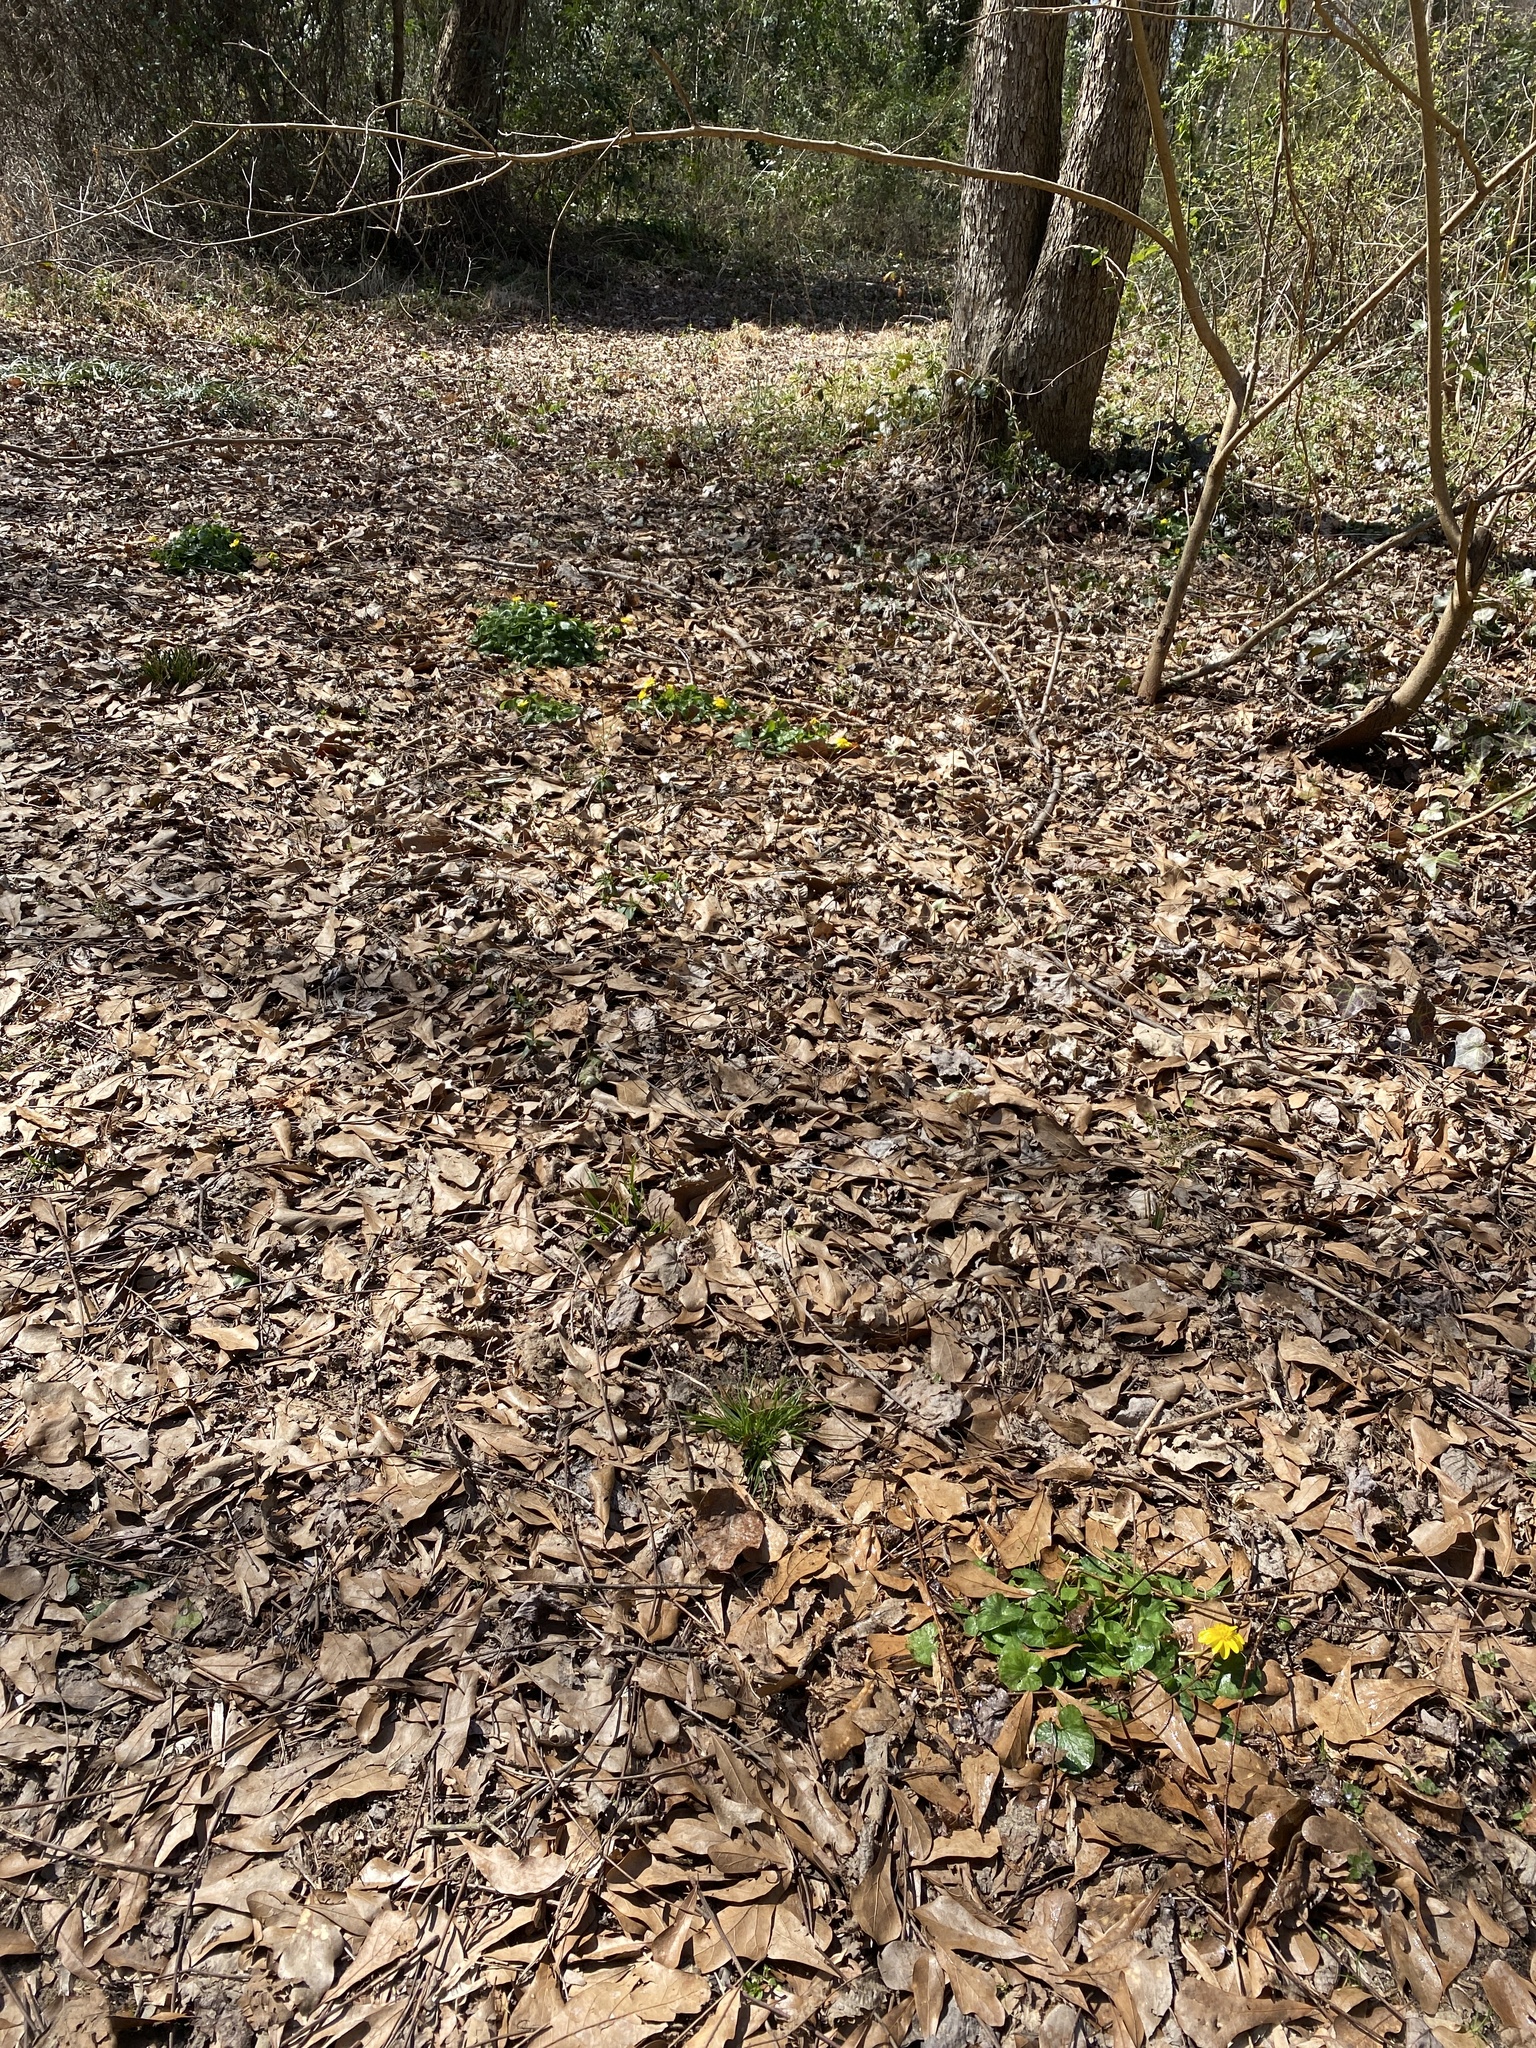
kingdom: Plantae
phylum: Tracheophyta
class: Magnoliopsida
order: Ranunculales
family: Ranunculaceae
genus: Ficaria
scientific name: Ficaria verna
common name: Lesser celandine
